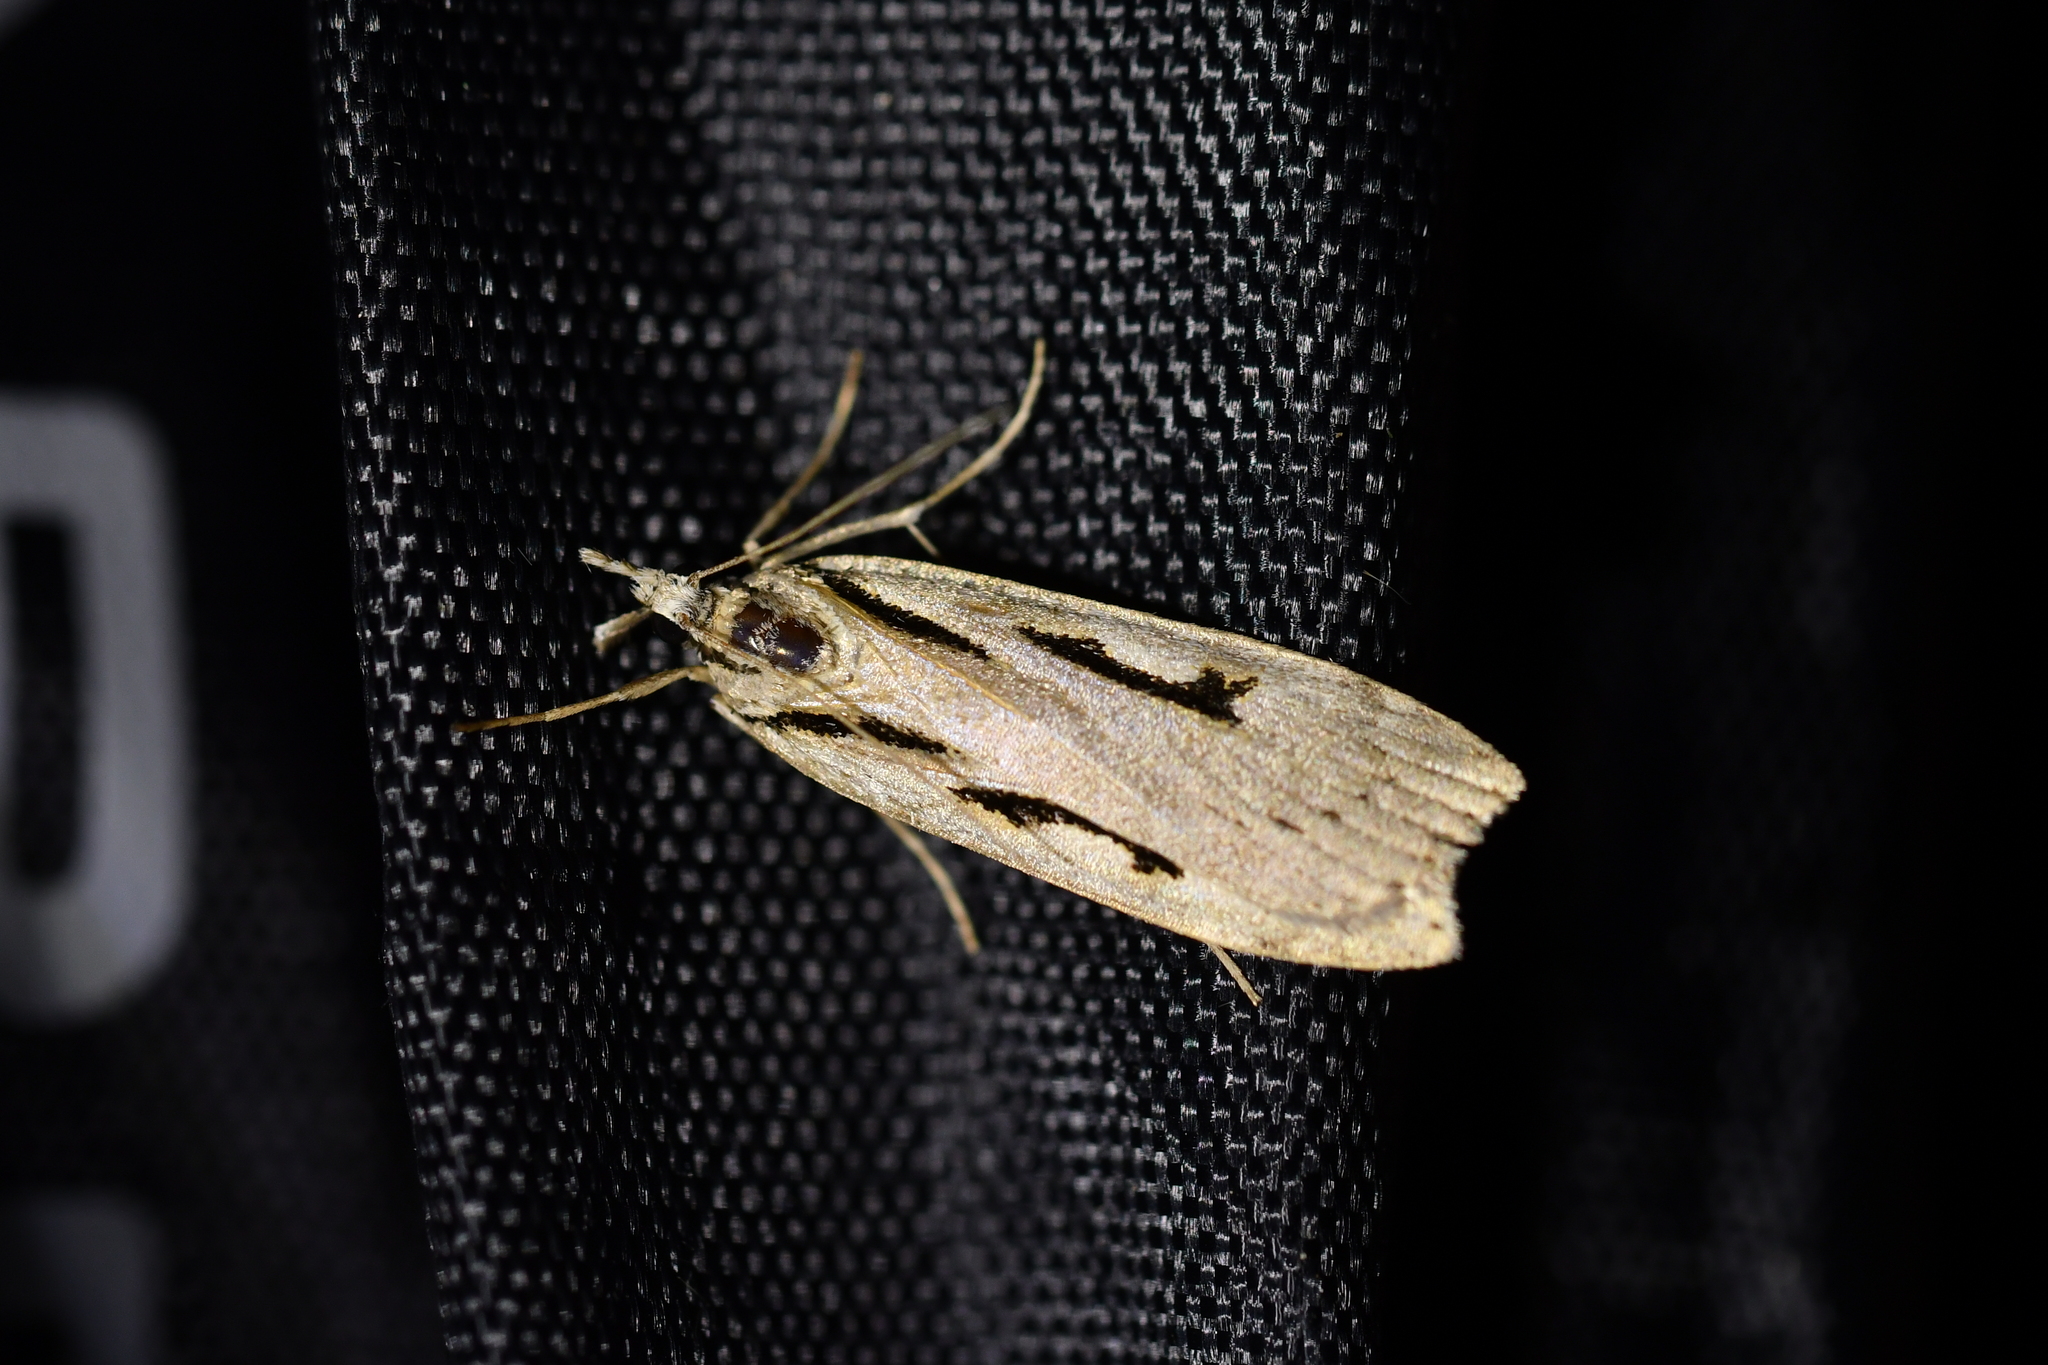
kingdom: Animalia
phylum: Arthropoda
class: Insecta
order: Lepidoptera
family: Crambidae
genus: Scoparia
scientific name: Scoparia rotuellus
